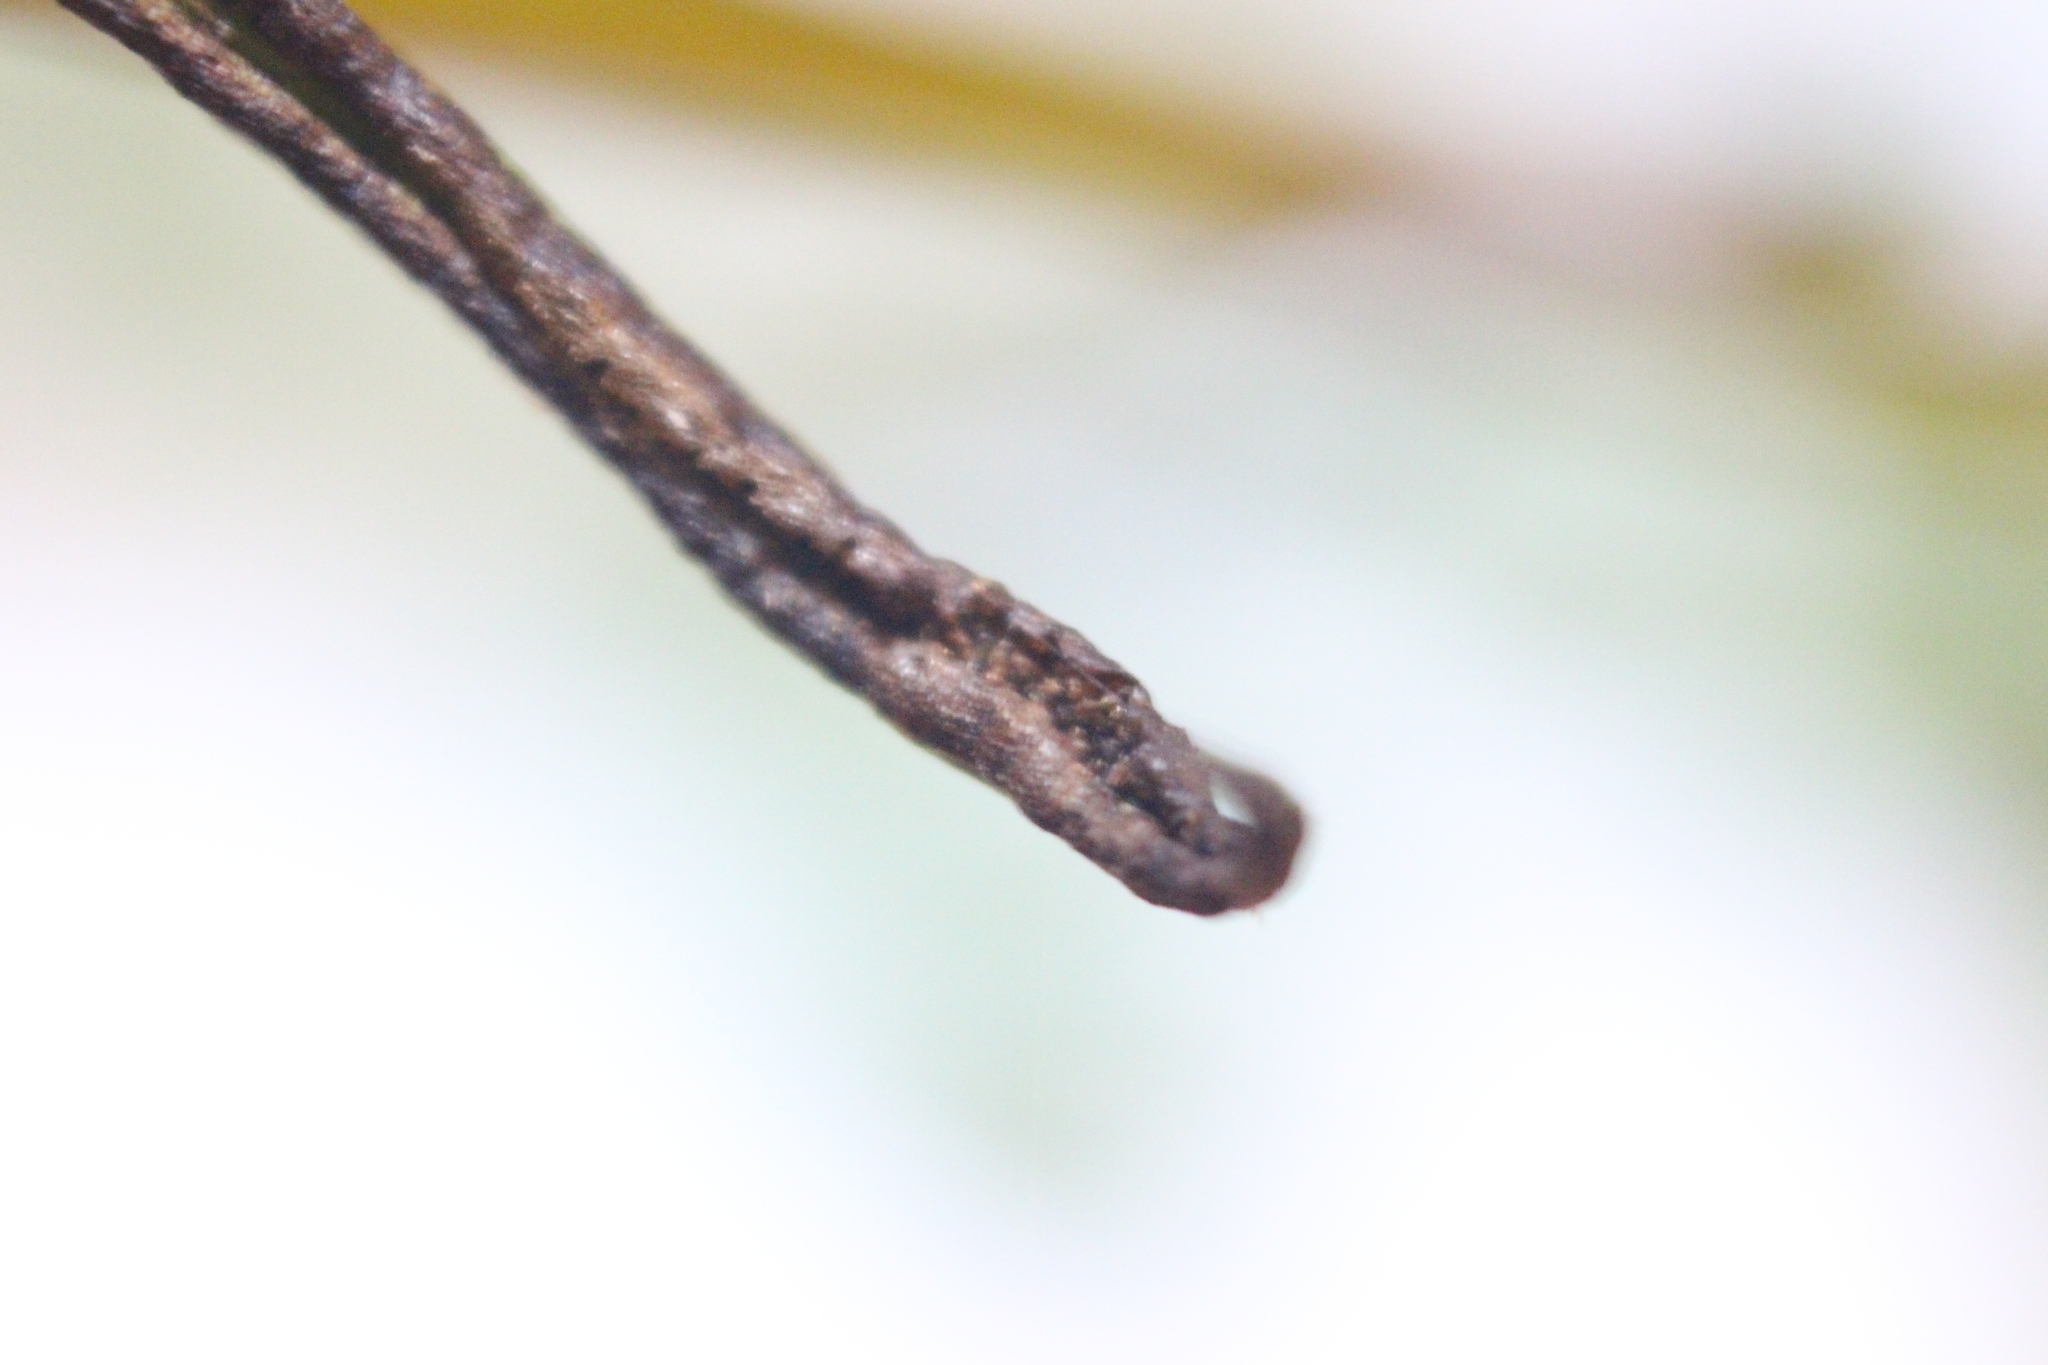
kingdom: Plantae
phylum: Tracheophyta
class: Polypodiopsida
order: Polypodiales
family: Blechnaceae
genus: Parablechnum
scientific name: Parablechnum minus
